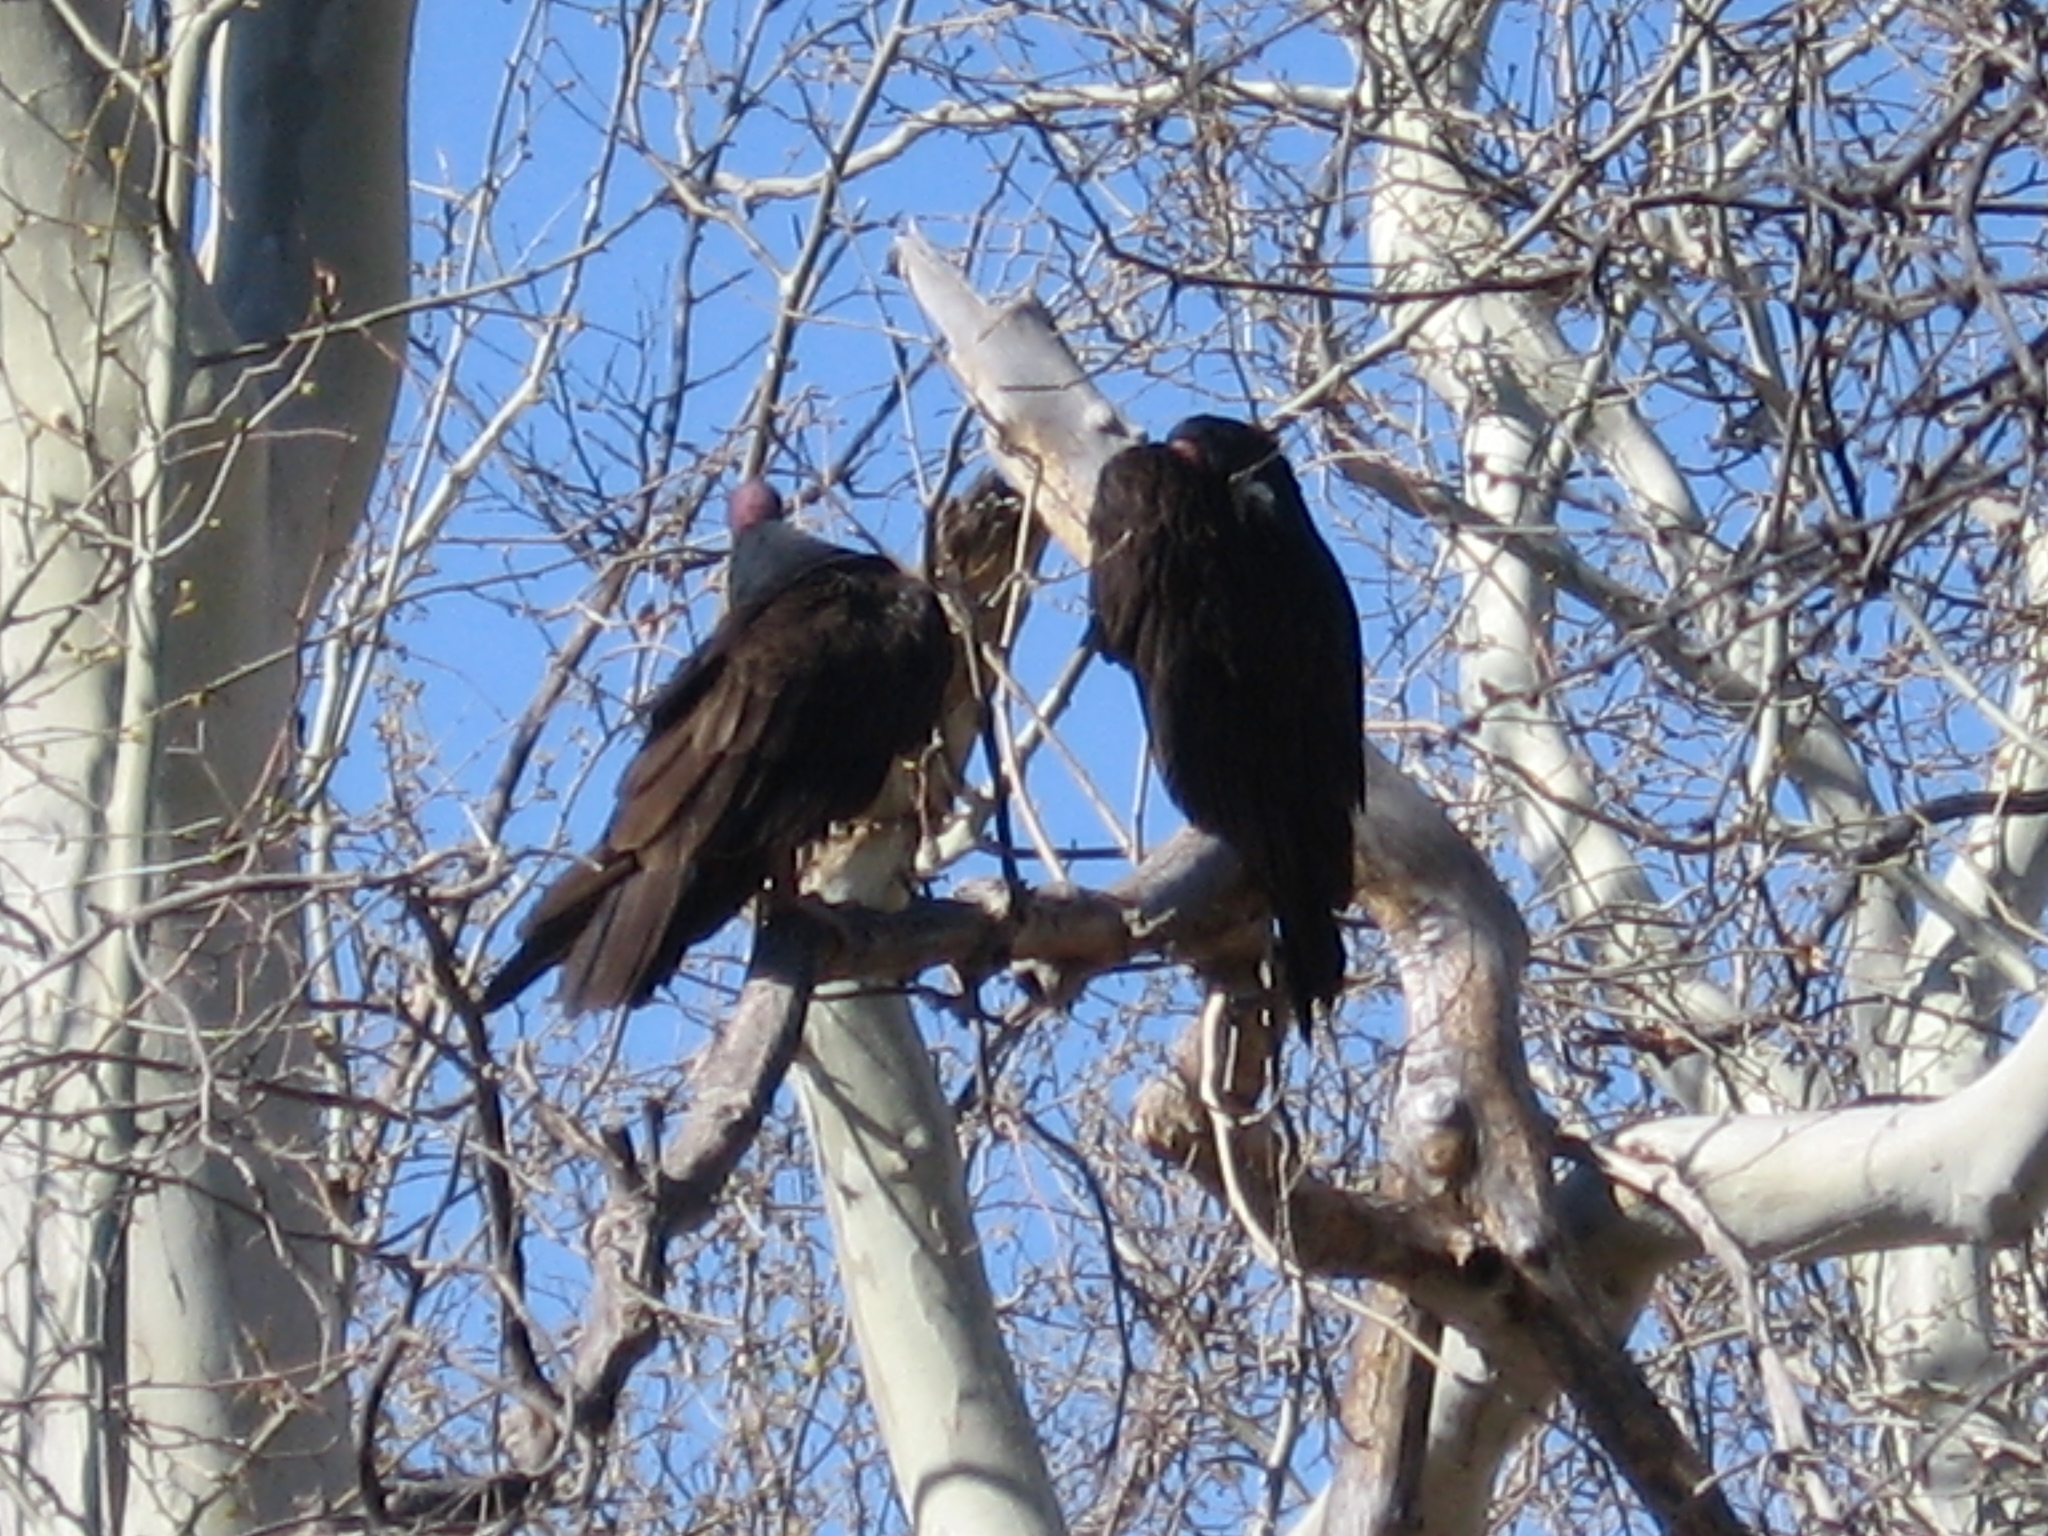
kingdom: Animalia
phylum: Chordata
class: Aves
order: Accipitriformes
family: Cathartidae
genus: Cathartes
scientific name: Cathartes aura
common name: Turkey vulture
